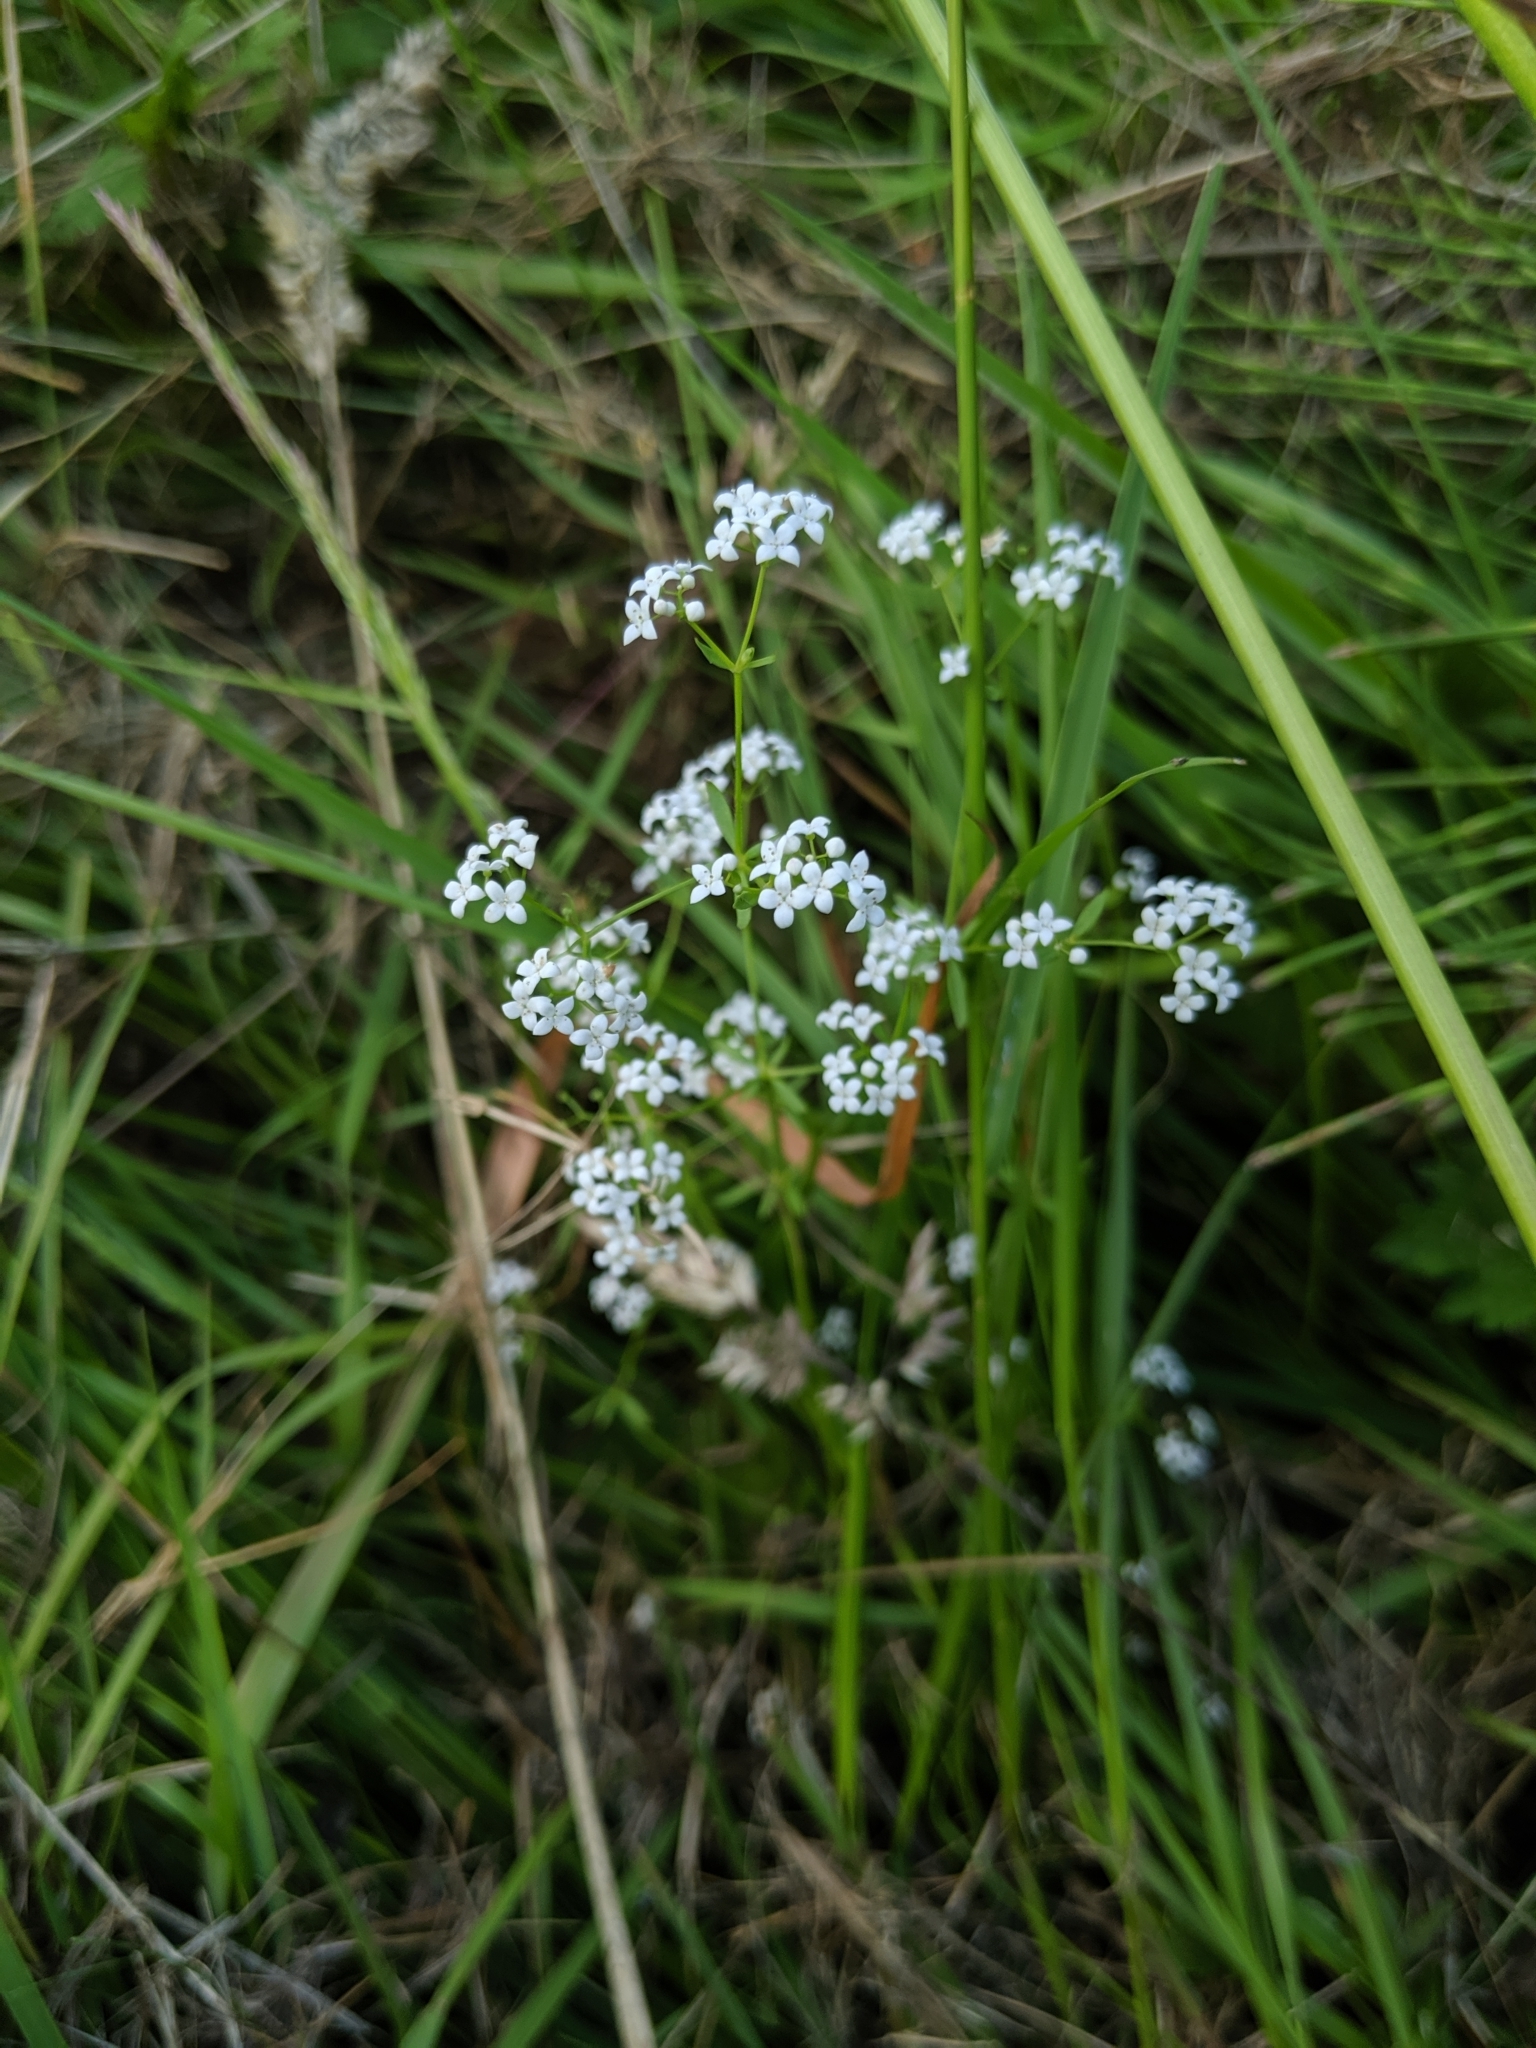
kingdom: Plantae
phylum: Tracheophyta
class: Magnoliopsida
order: Gentianales
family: Rubiaceae
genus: Galium
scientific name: Galium palustre
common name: Common marsh-bedstraw
